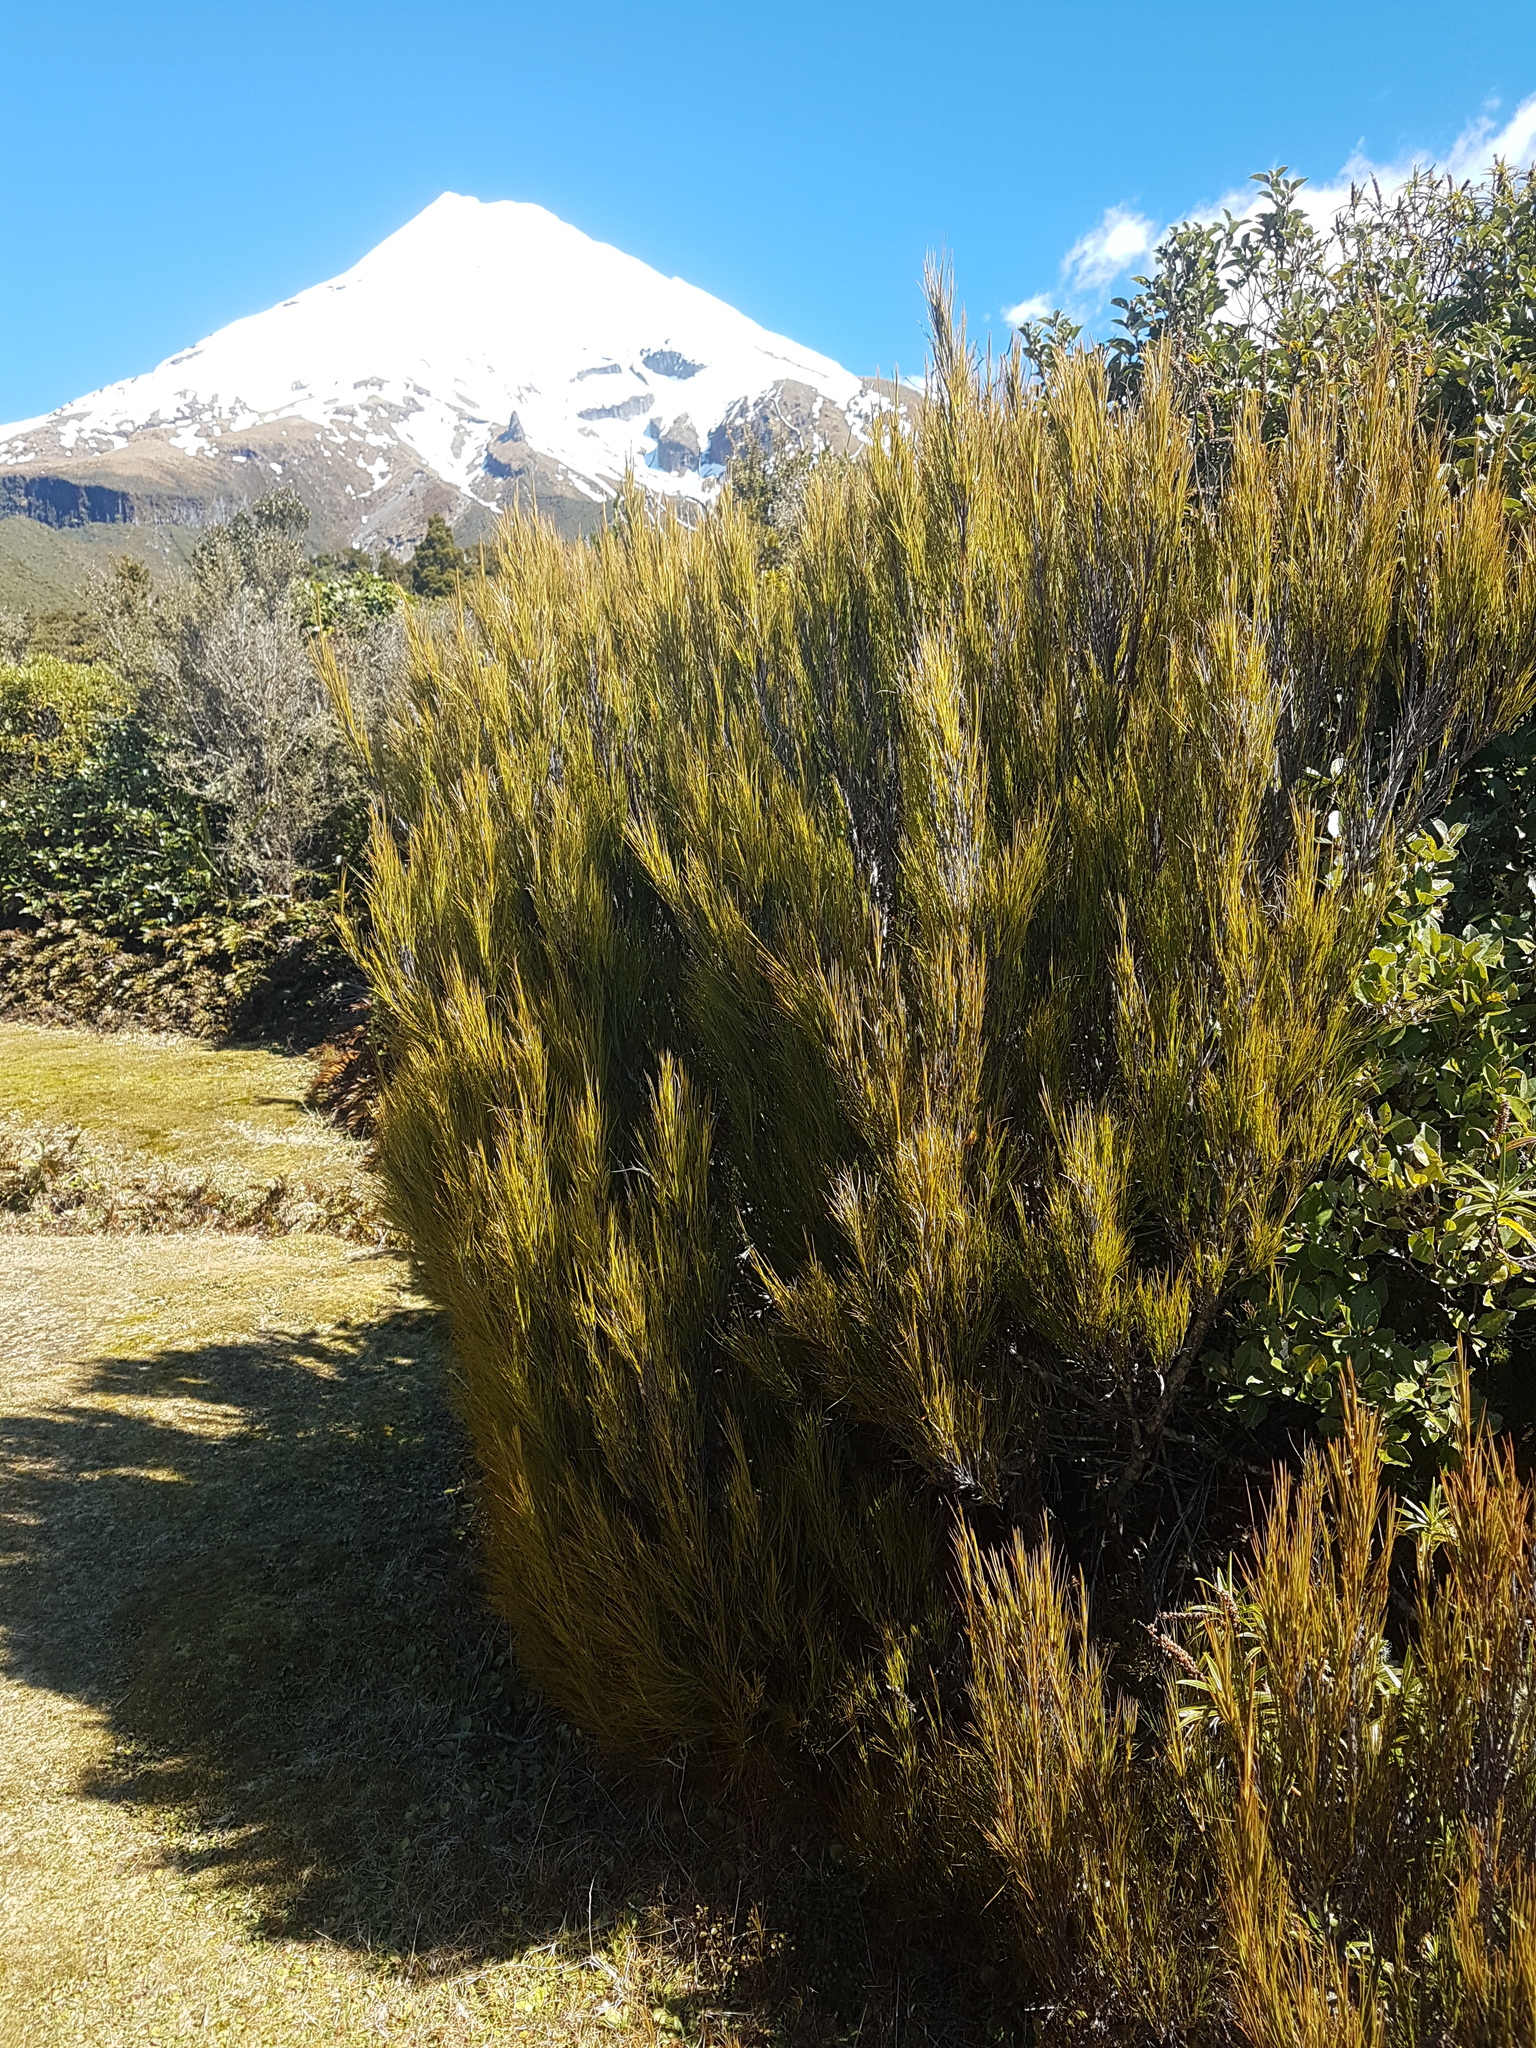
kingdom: Plantae
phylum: Tracheophyta
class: Magnoliopsida
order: Ericales
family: Ericaceae
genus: Dracophyllum
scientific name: Dracophyllum filifolium
